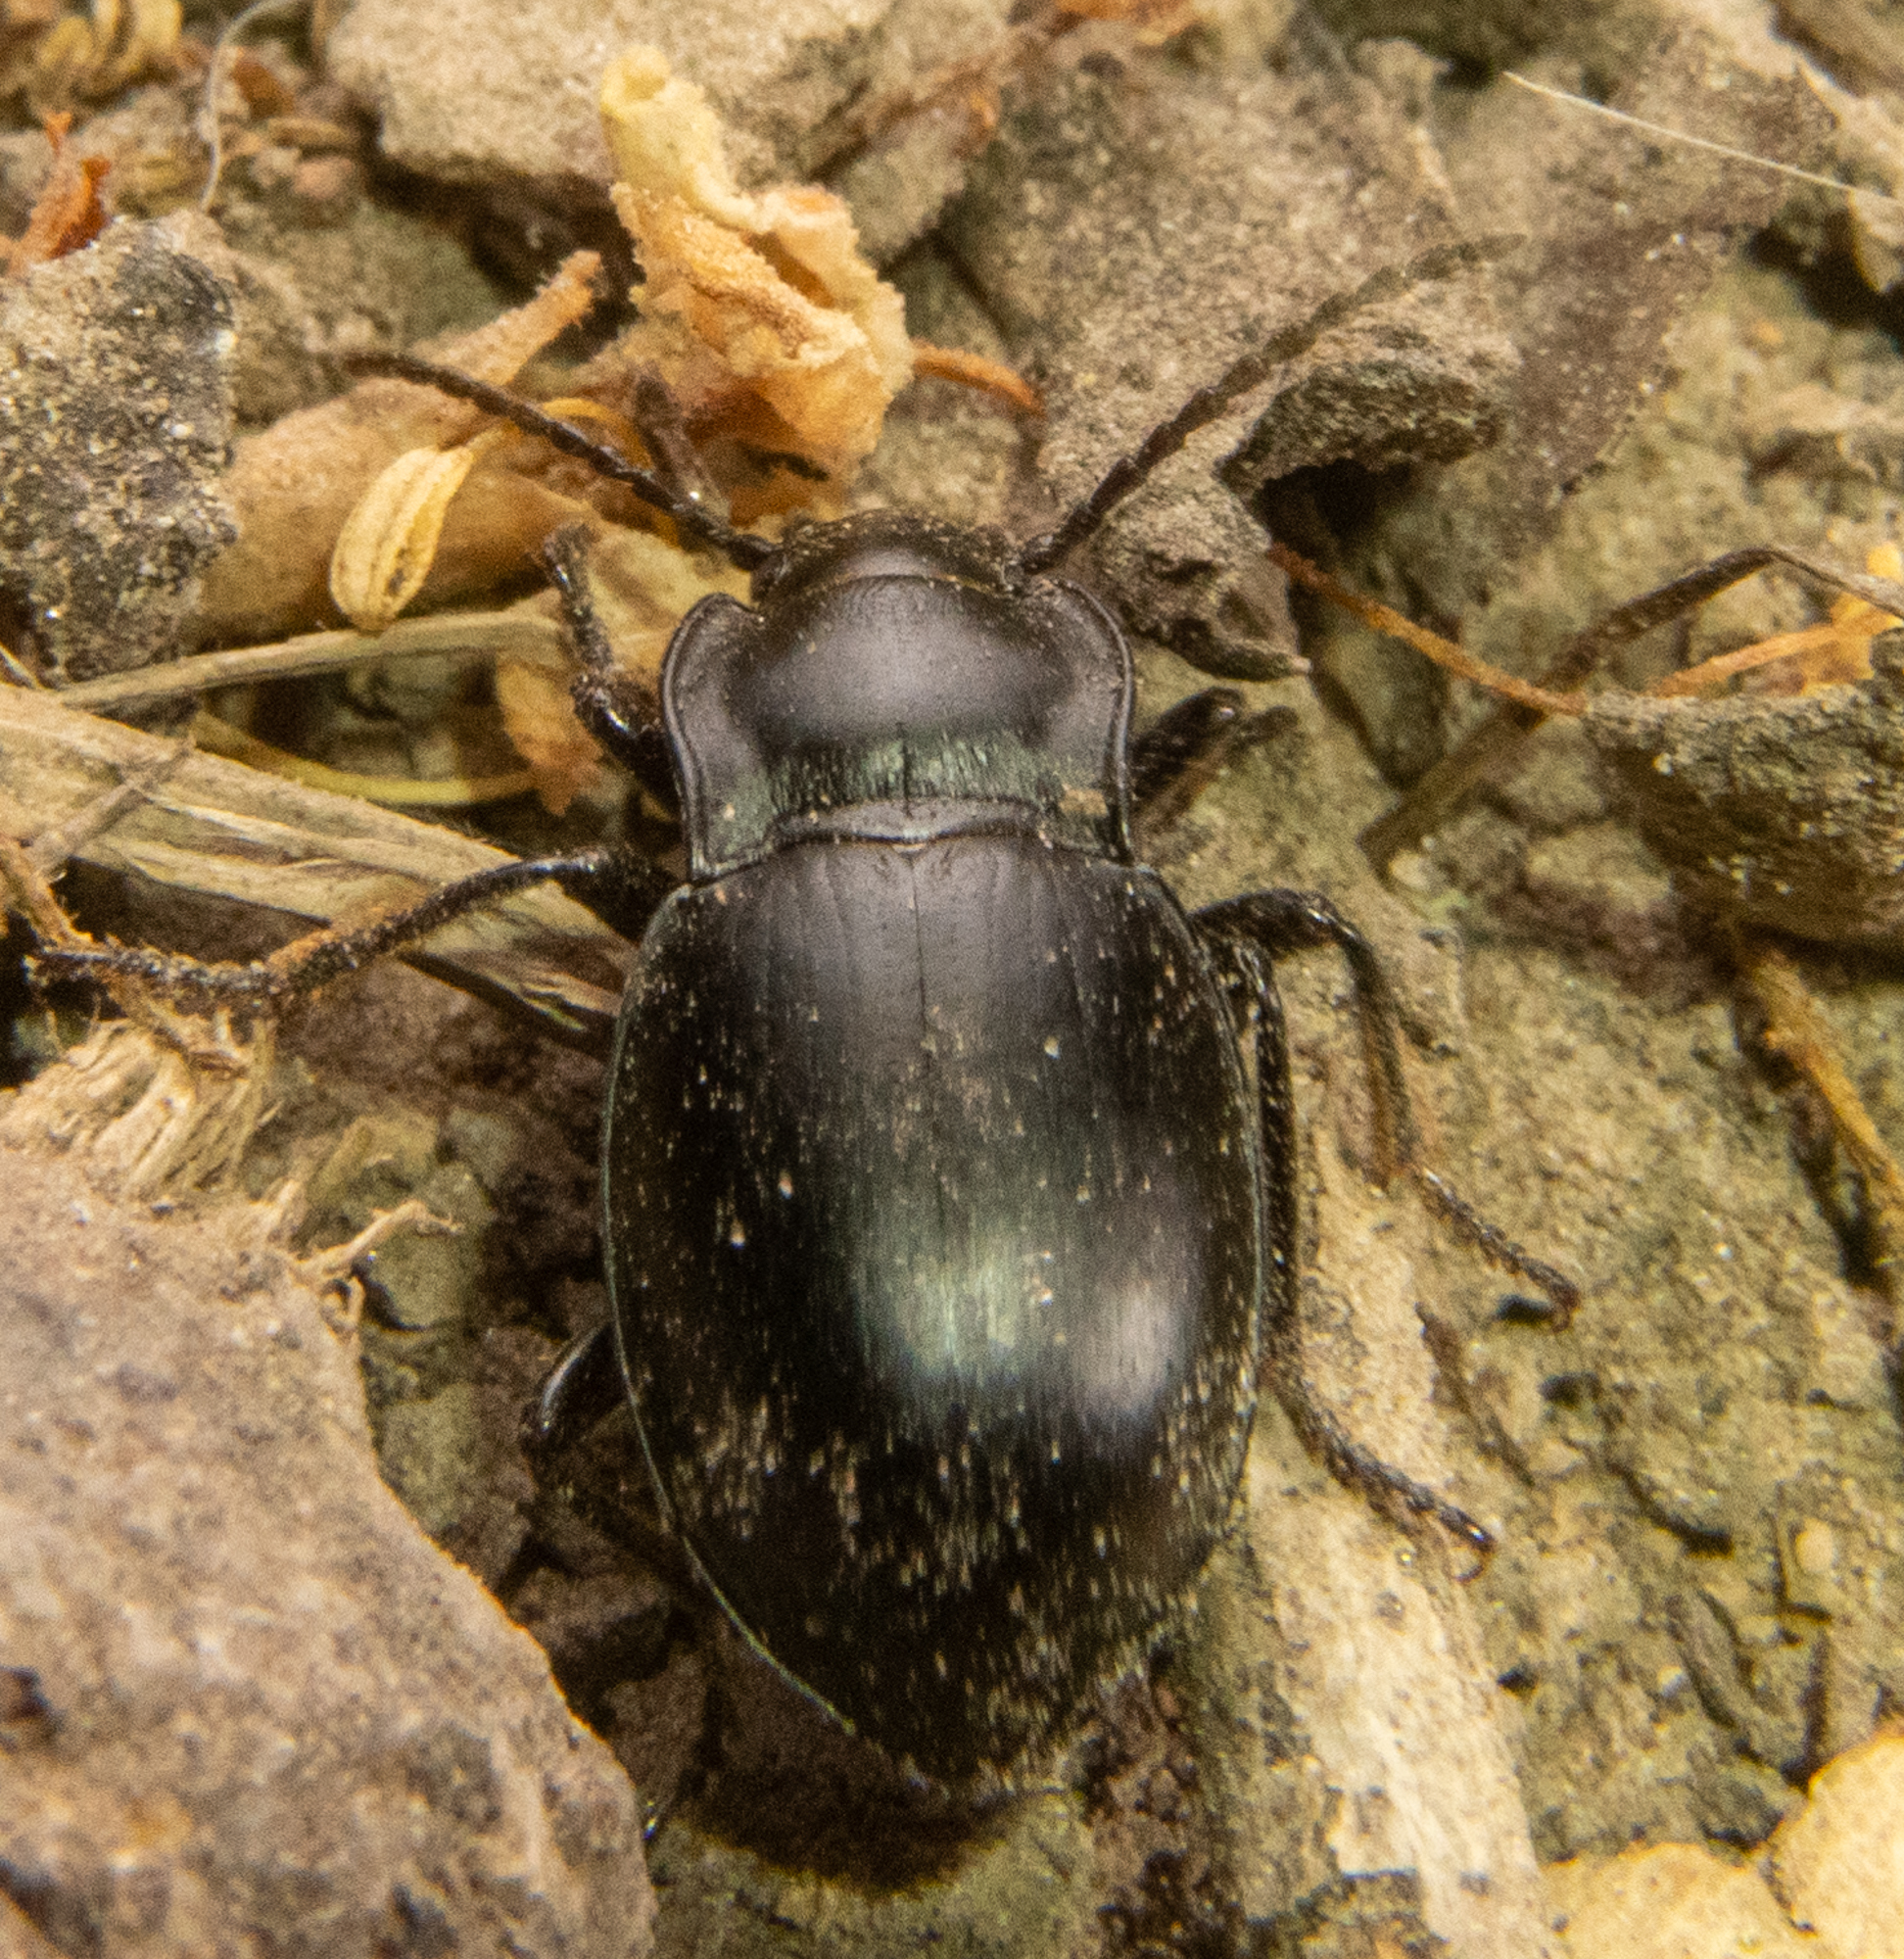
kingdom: Animalia
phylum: Arthropoda
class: Insecta
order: Coleoptera
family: Carabidae
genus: Metrius
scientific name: Metrius contractus
